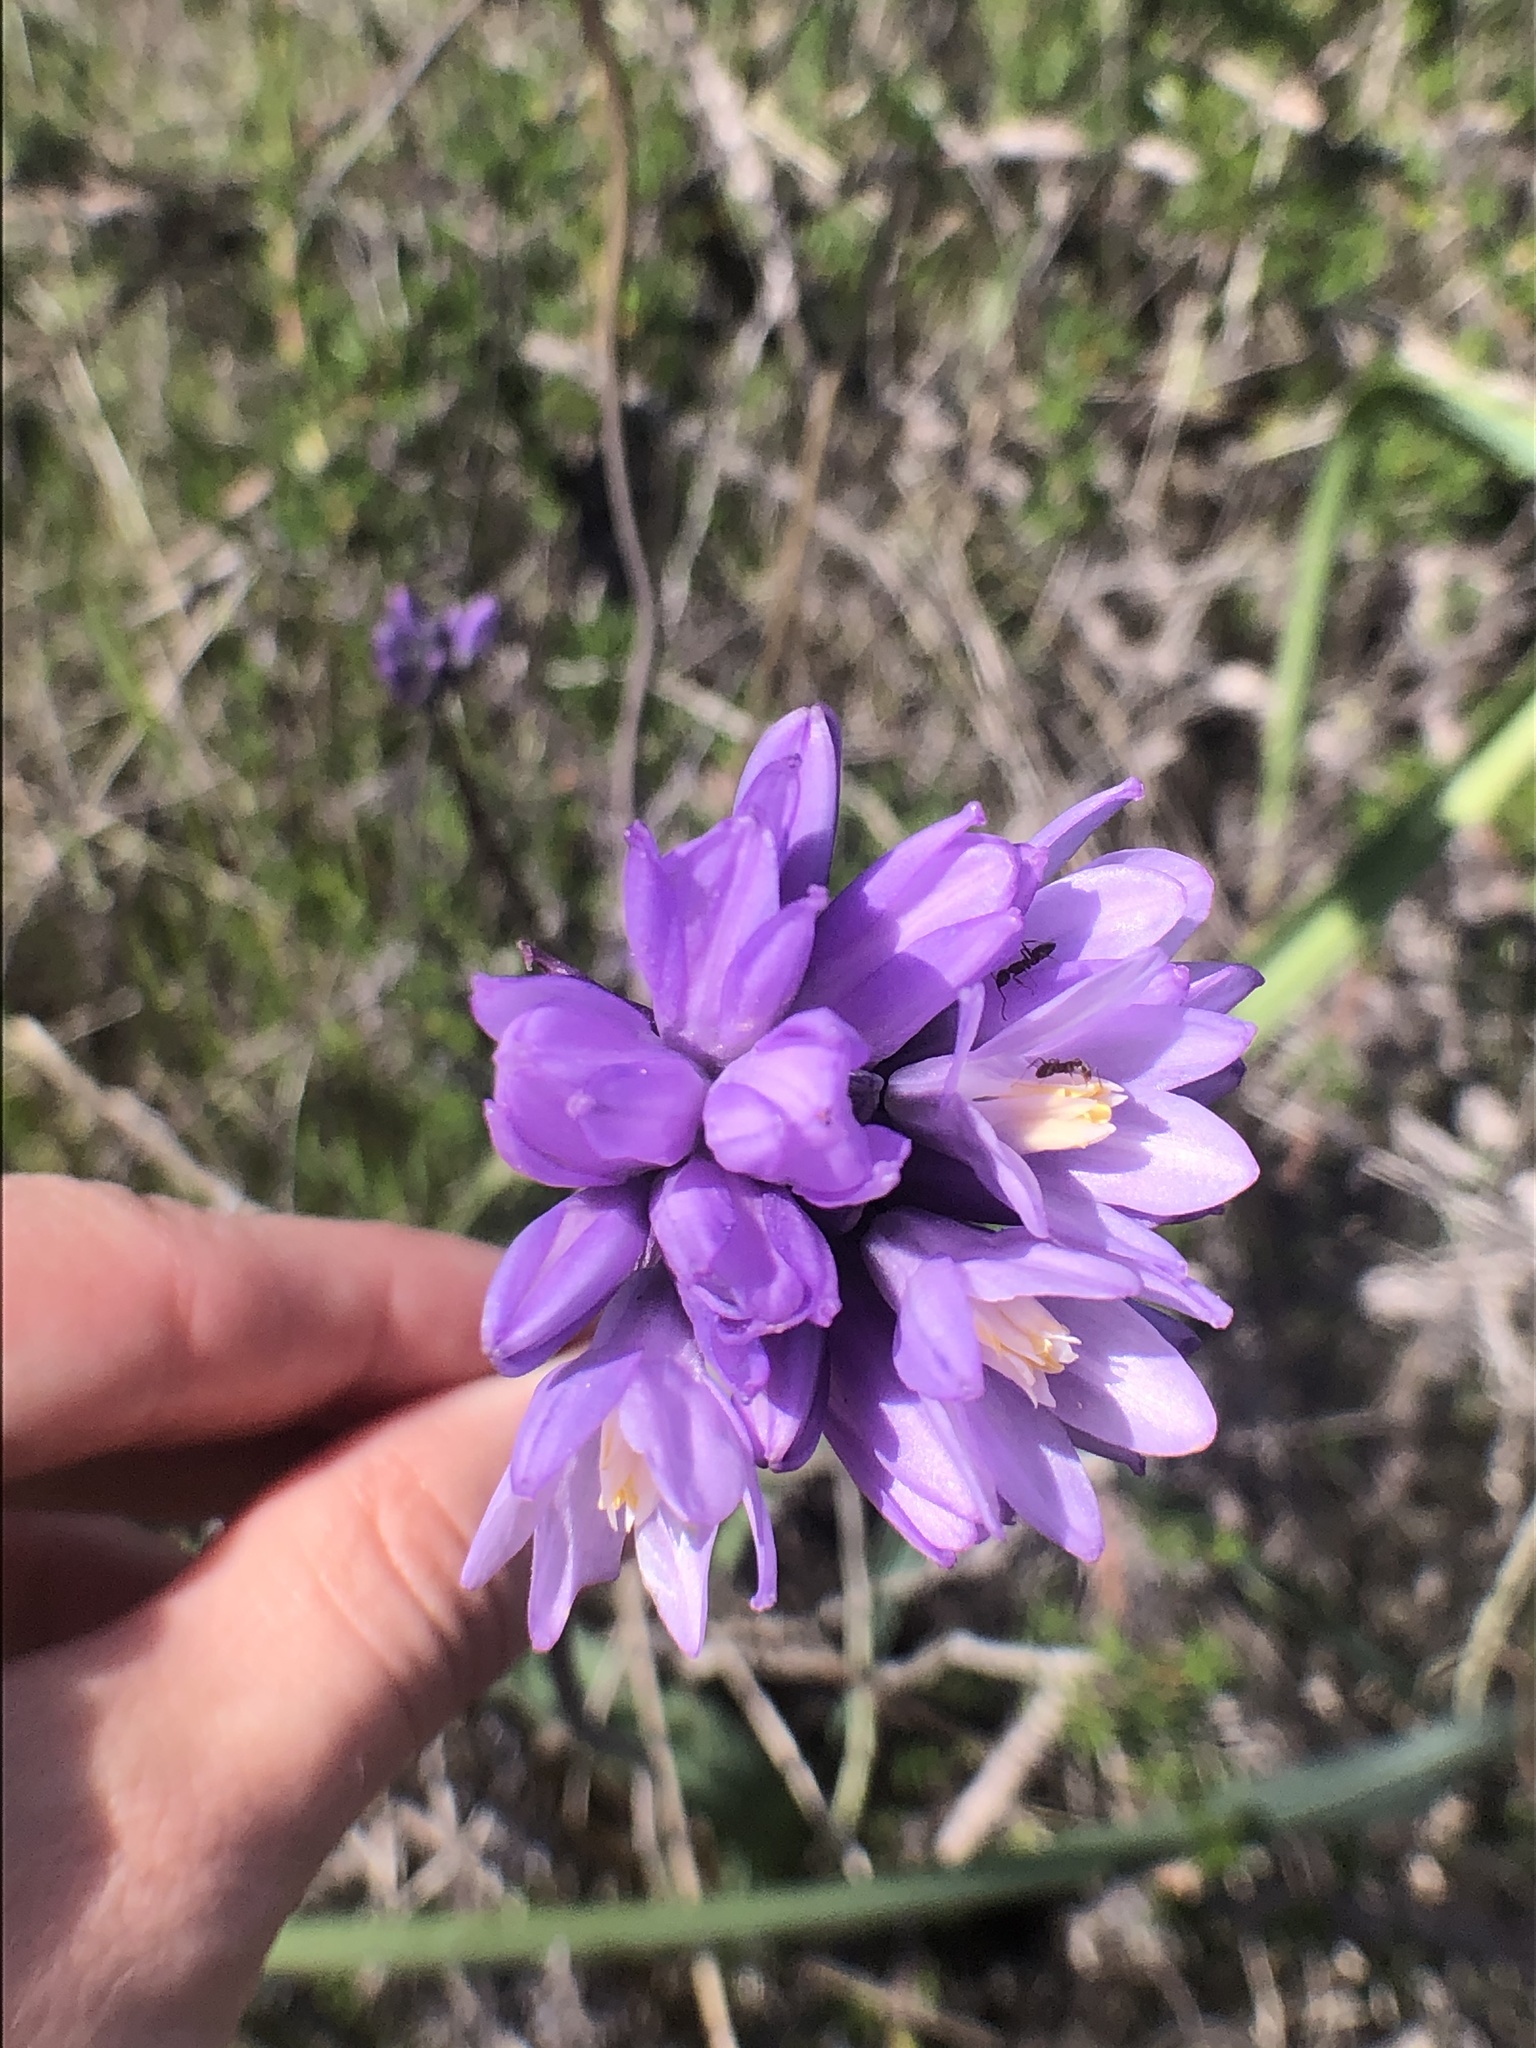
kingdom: Plantae
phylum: Tracheophyta
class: Liliopsida
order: Asparagales
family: Asparagaceae
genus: Dipterostemon
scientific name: Dipterostemon capitatus
